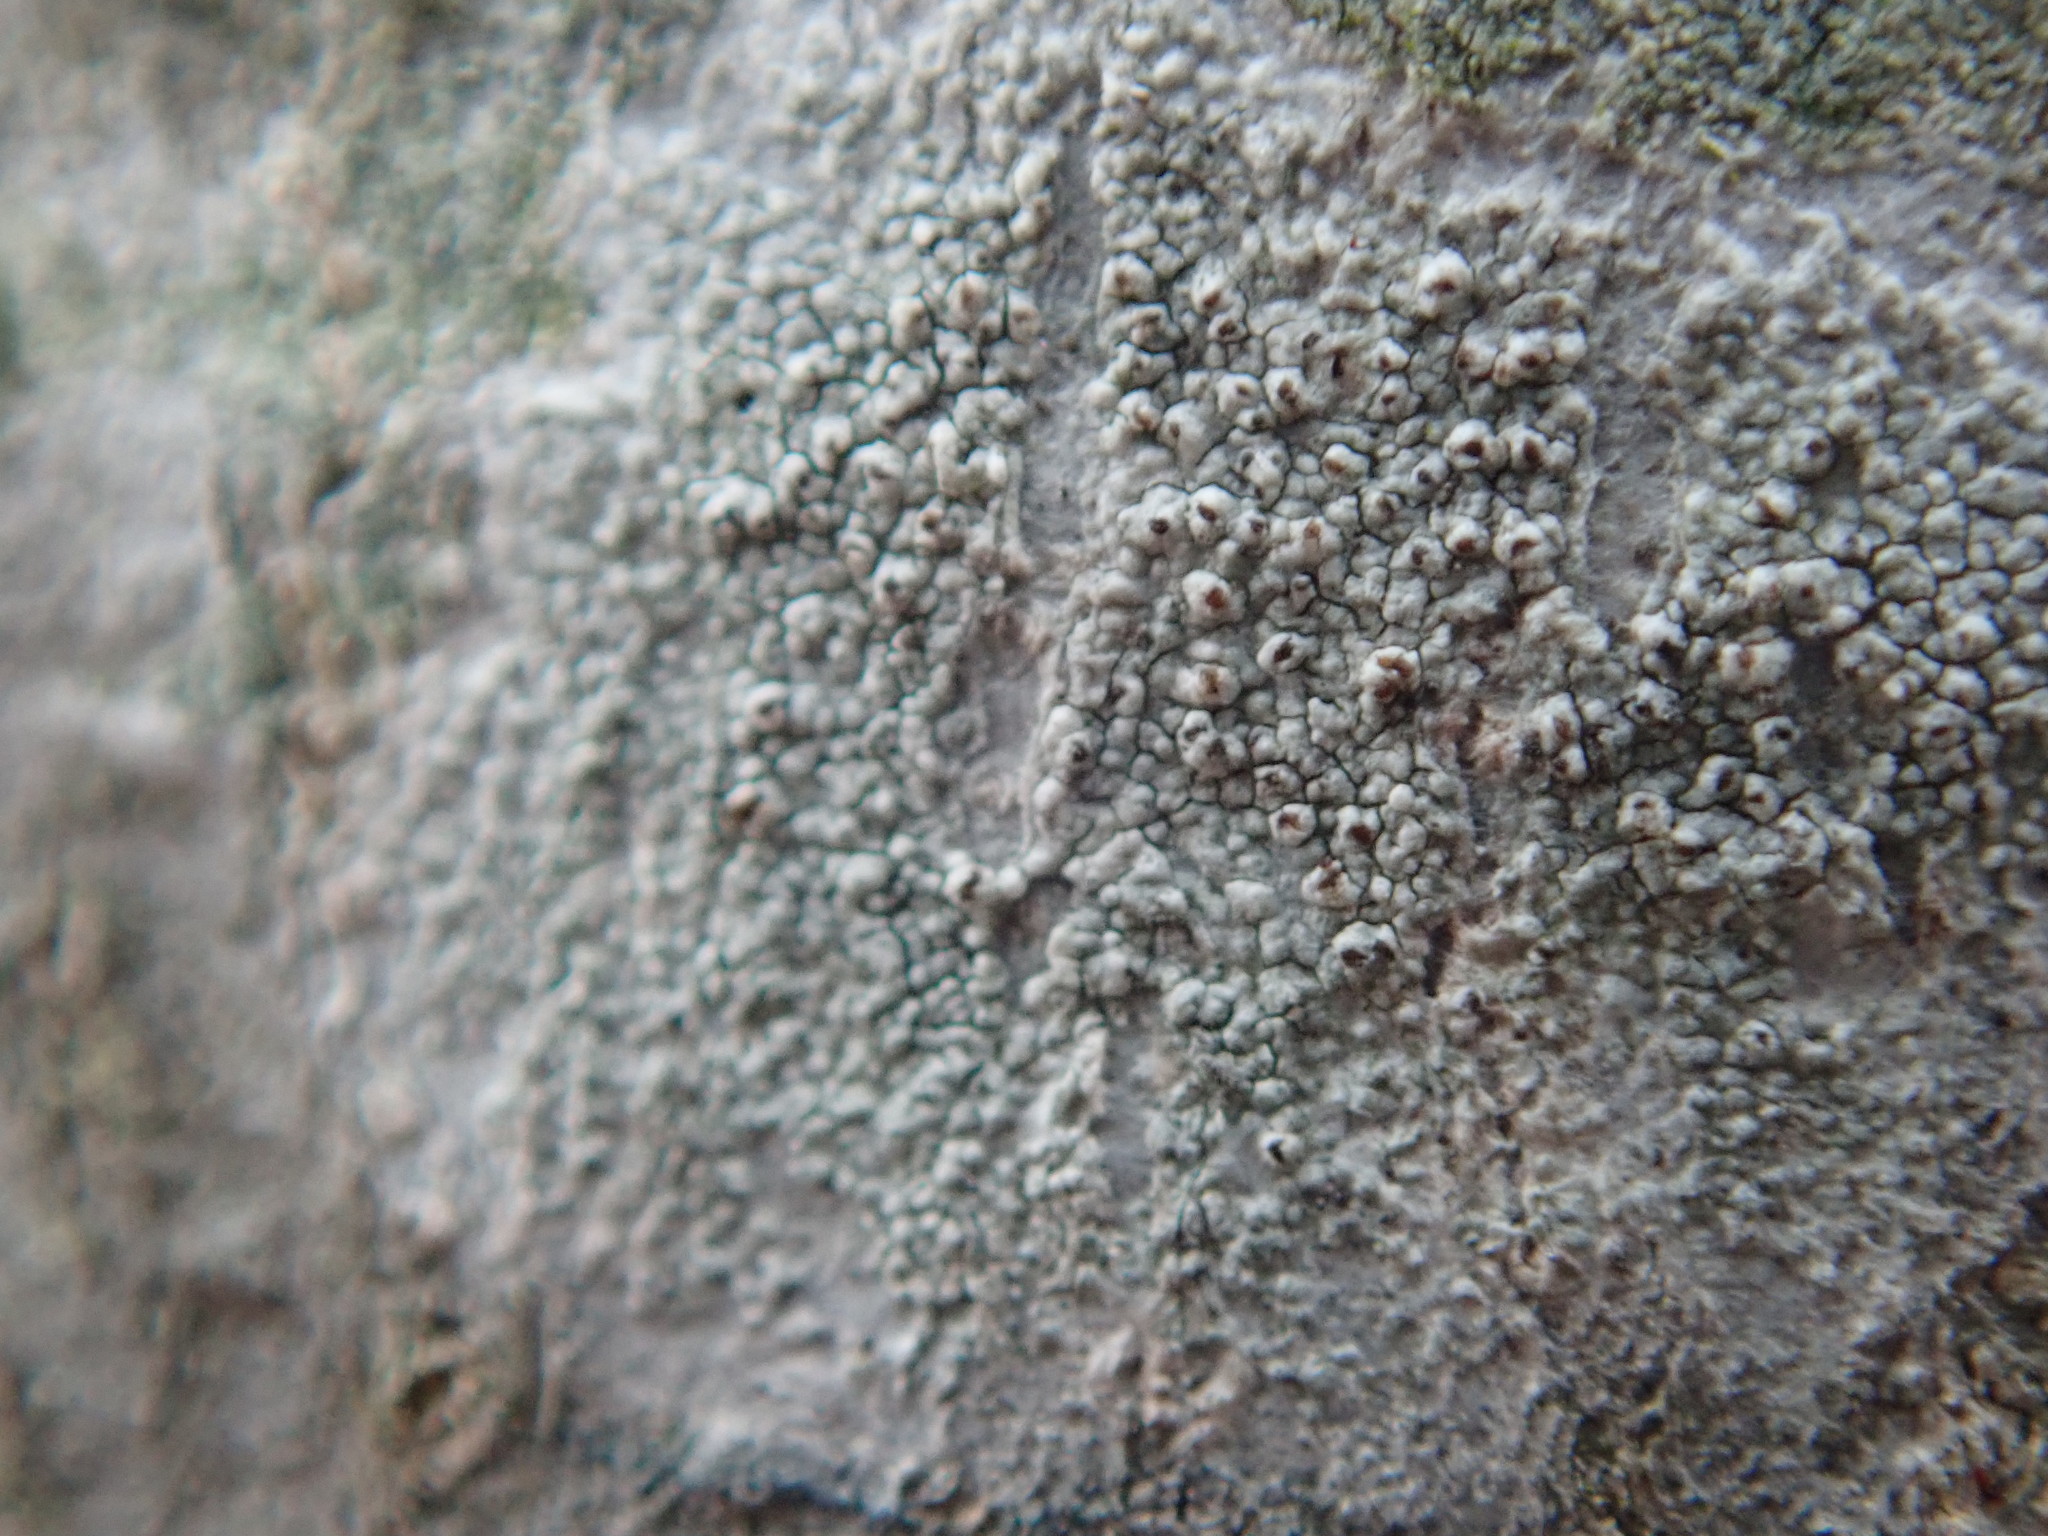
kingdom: Fungi
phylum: Ascomycota
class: Lecanoromycetes
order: Lecanorales
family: Lecanoraceae
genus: Lecanora
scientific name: Lecanora hybocarpa
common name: Bumpy rim-lichen
